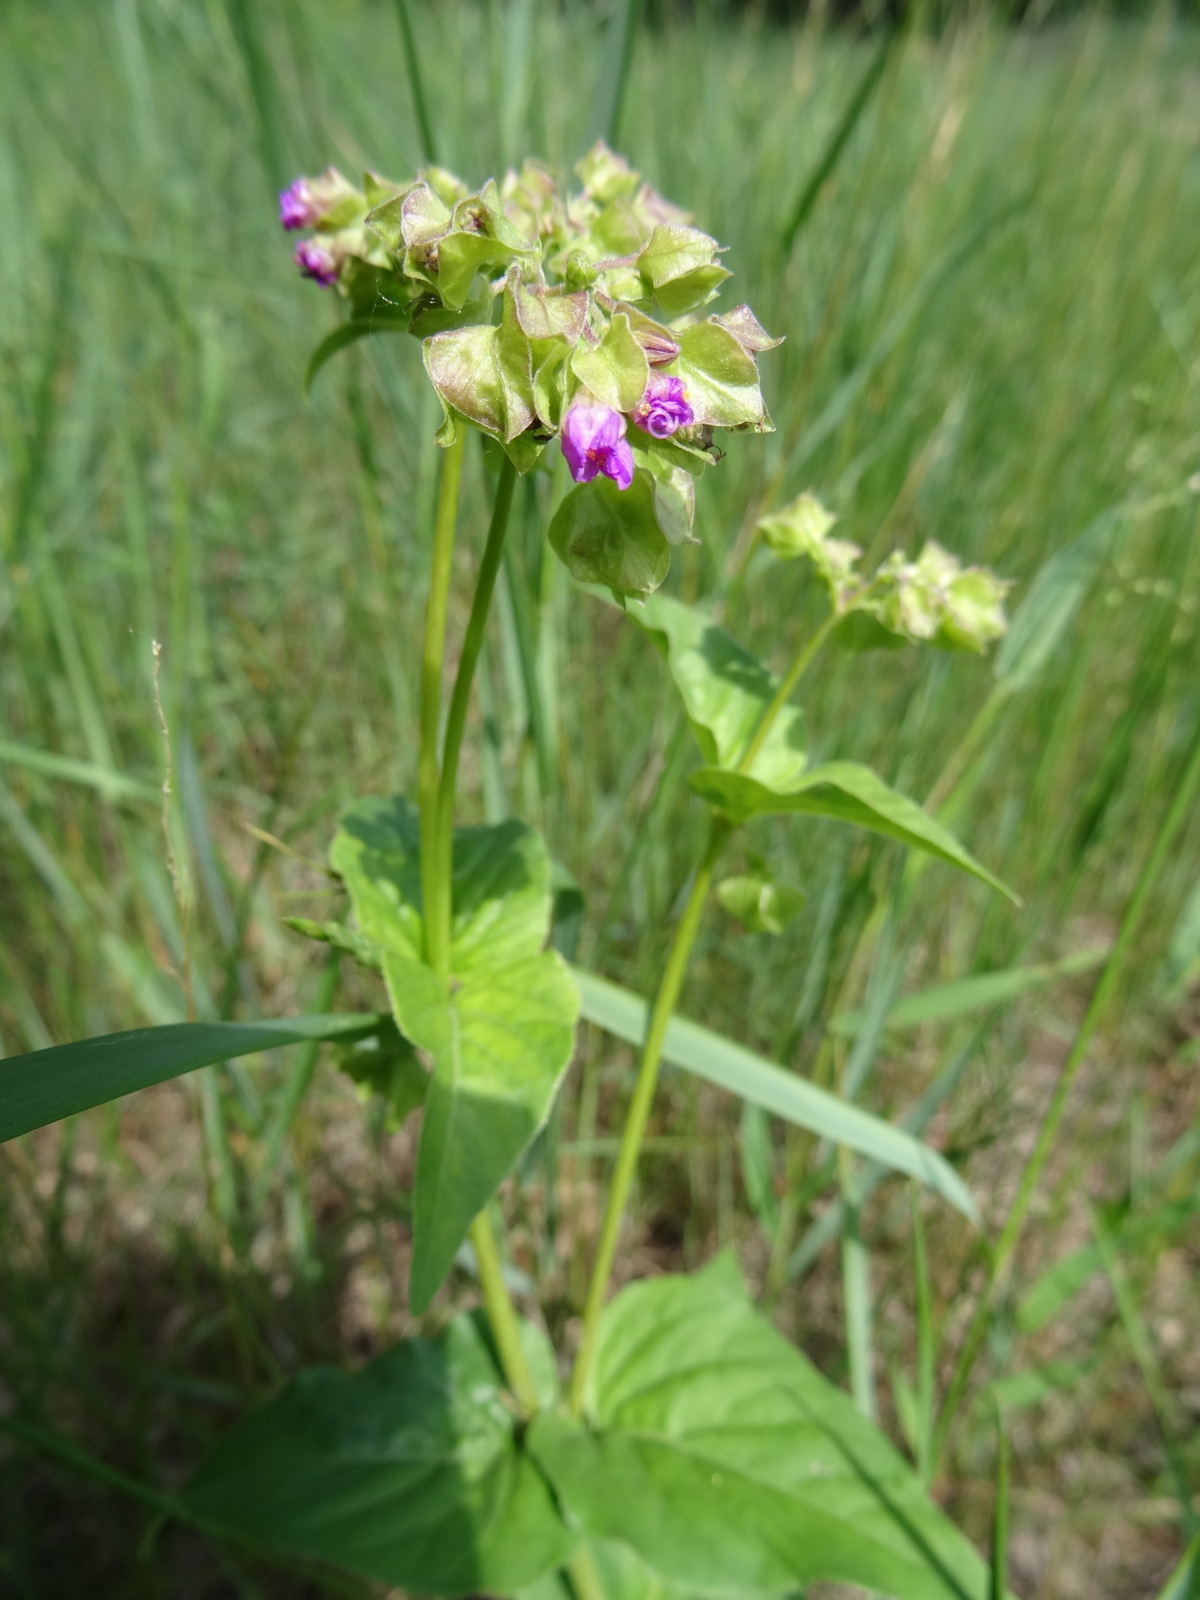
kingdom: Plantae
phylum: Tracheophyta
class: Magnoliopsida
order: Caryophyllales
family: Nyctaginaceae
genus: Mirabilis
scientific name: Mirabilis nyctaginea
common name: Umbrella wort
